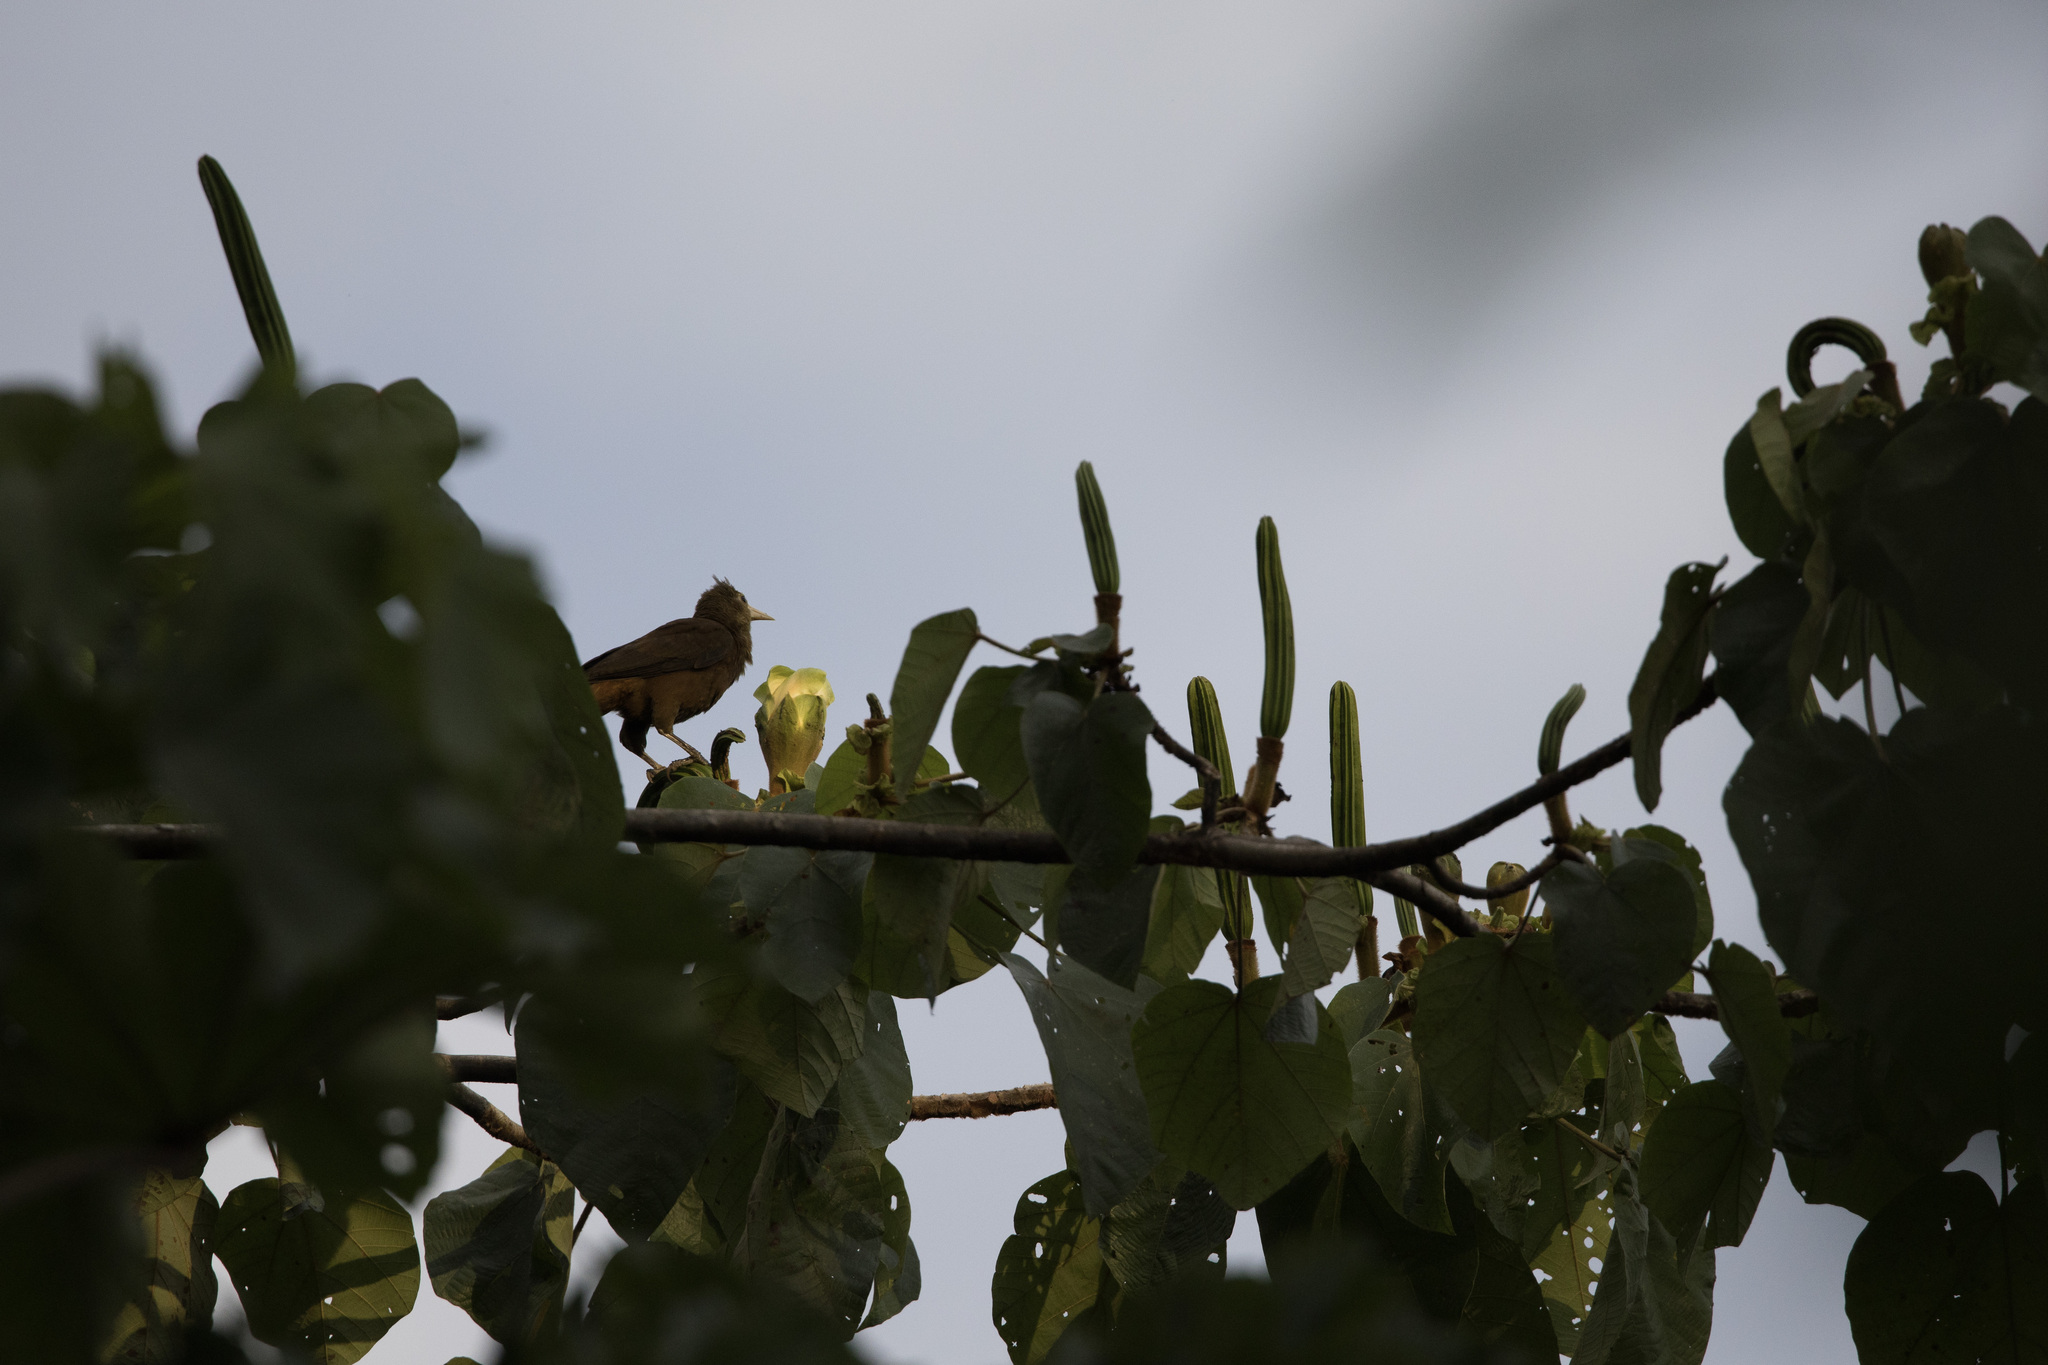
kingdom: Animalia
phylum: Chordata
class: Aves
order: Passeriformes
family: Icteridae
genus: Psarocolius
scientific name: Psarocolius angustifrons
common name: Russet-backed oropendola
